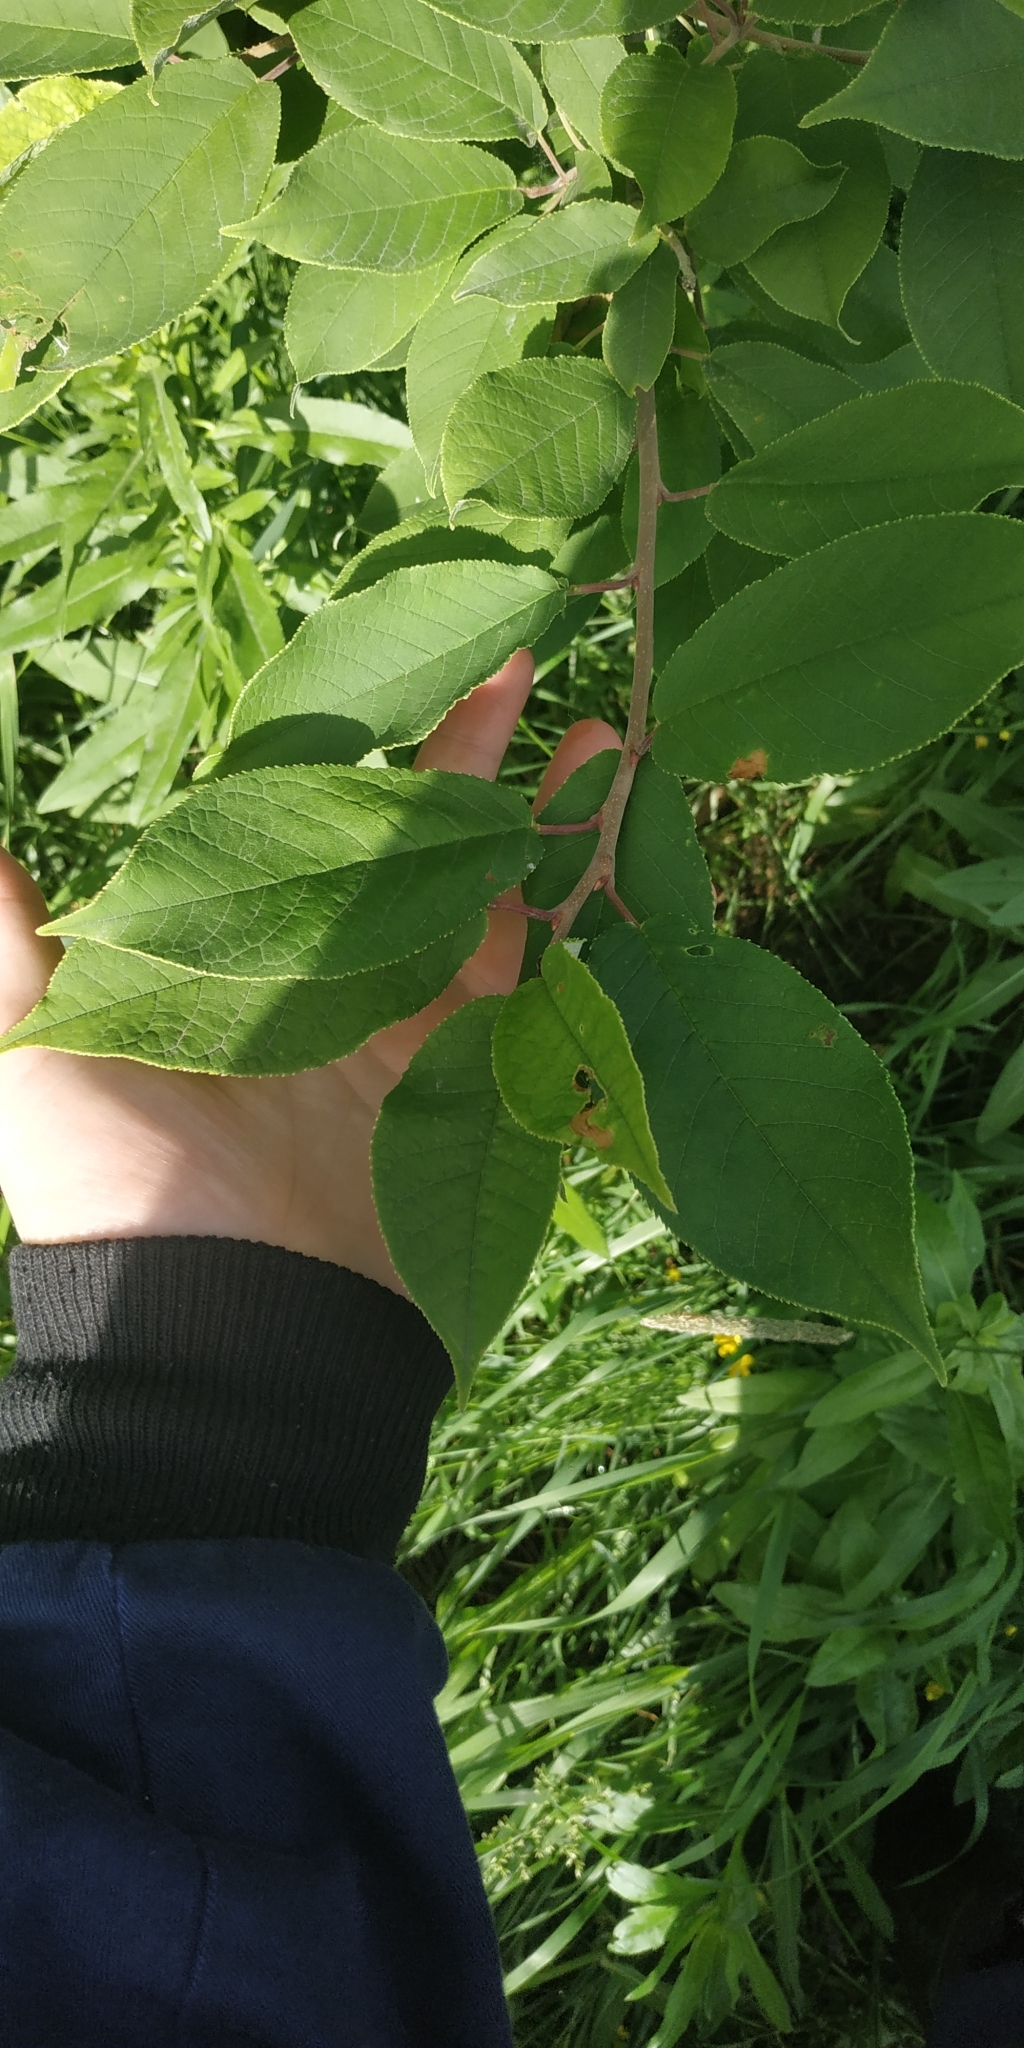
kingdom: Plantae
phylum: Tracheophyta
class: Magnoliopsida
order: Rosales
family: Rosaceae
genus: Prunus
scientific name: Prunus padus
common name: Bird cherry
